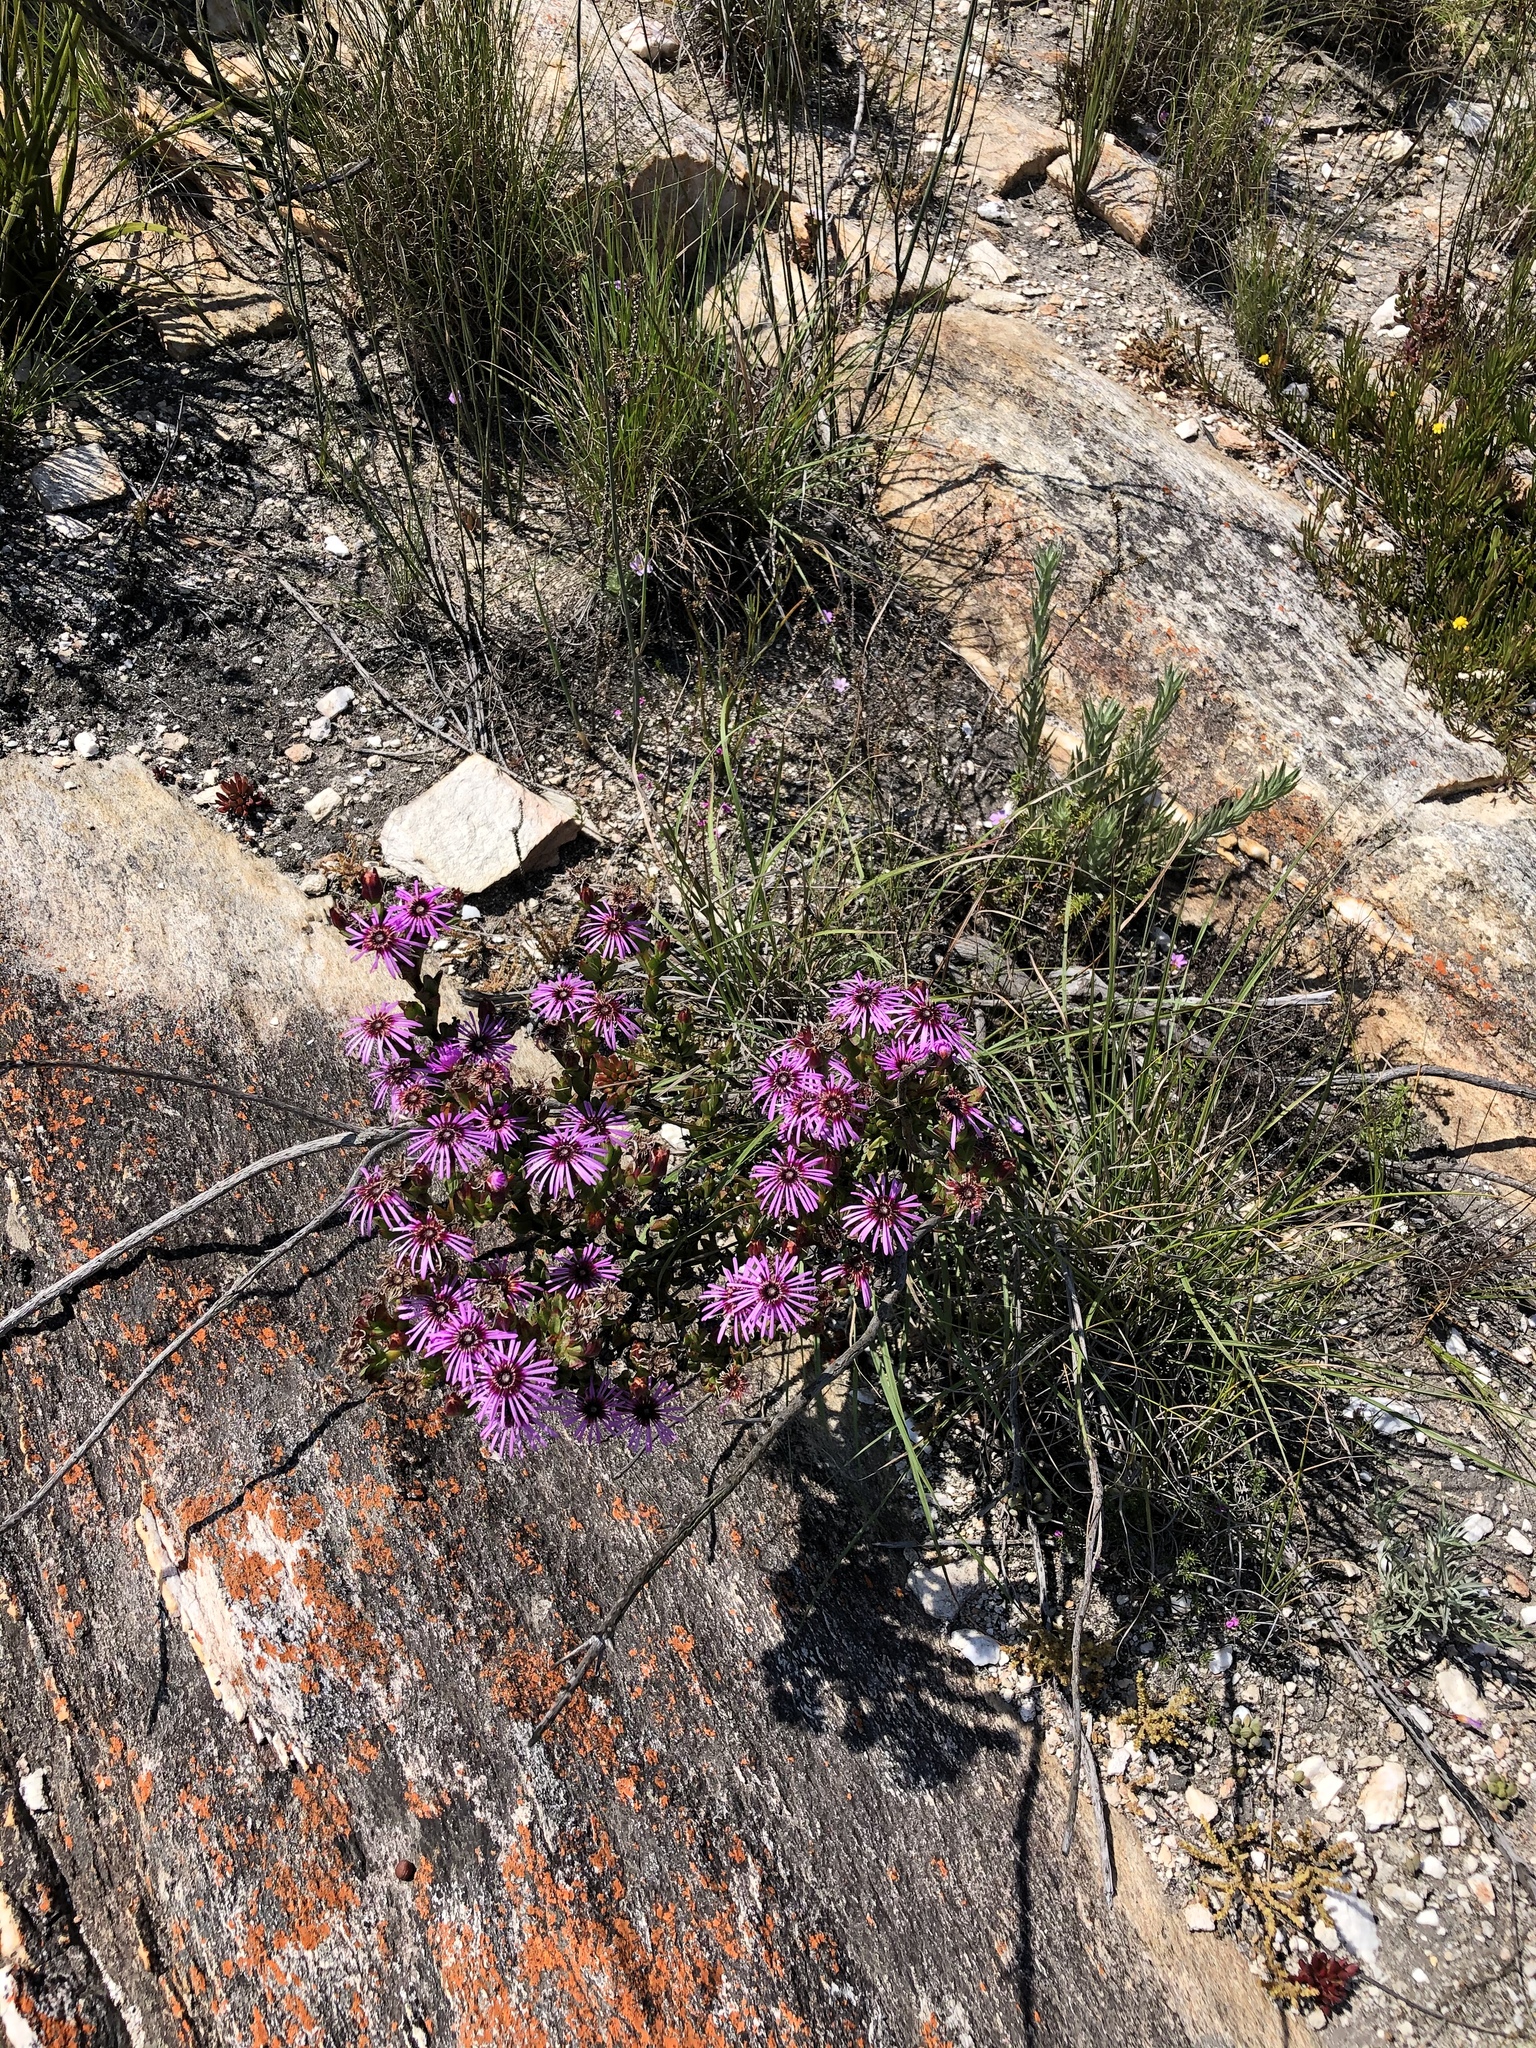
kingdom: Plantae
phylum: Tracheophyta
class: Magnoliopsida
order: Caryophyllales
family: Aizoaceae
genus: Erepsia
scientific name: Erepsia pentagona
